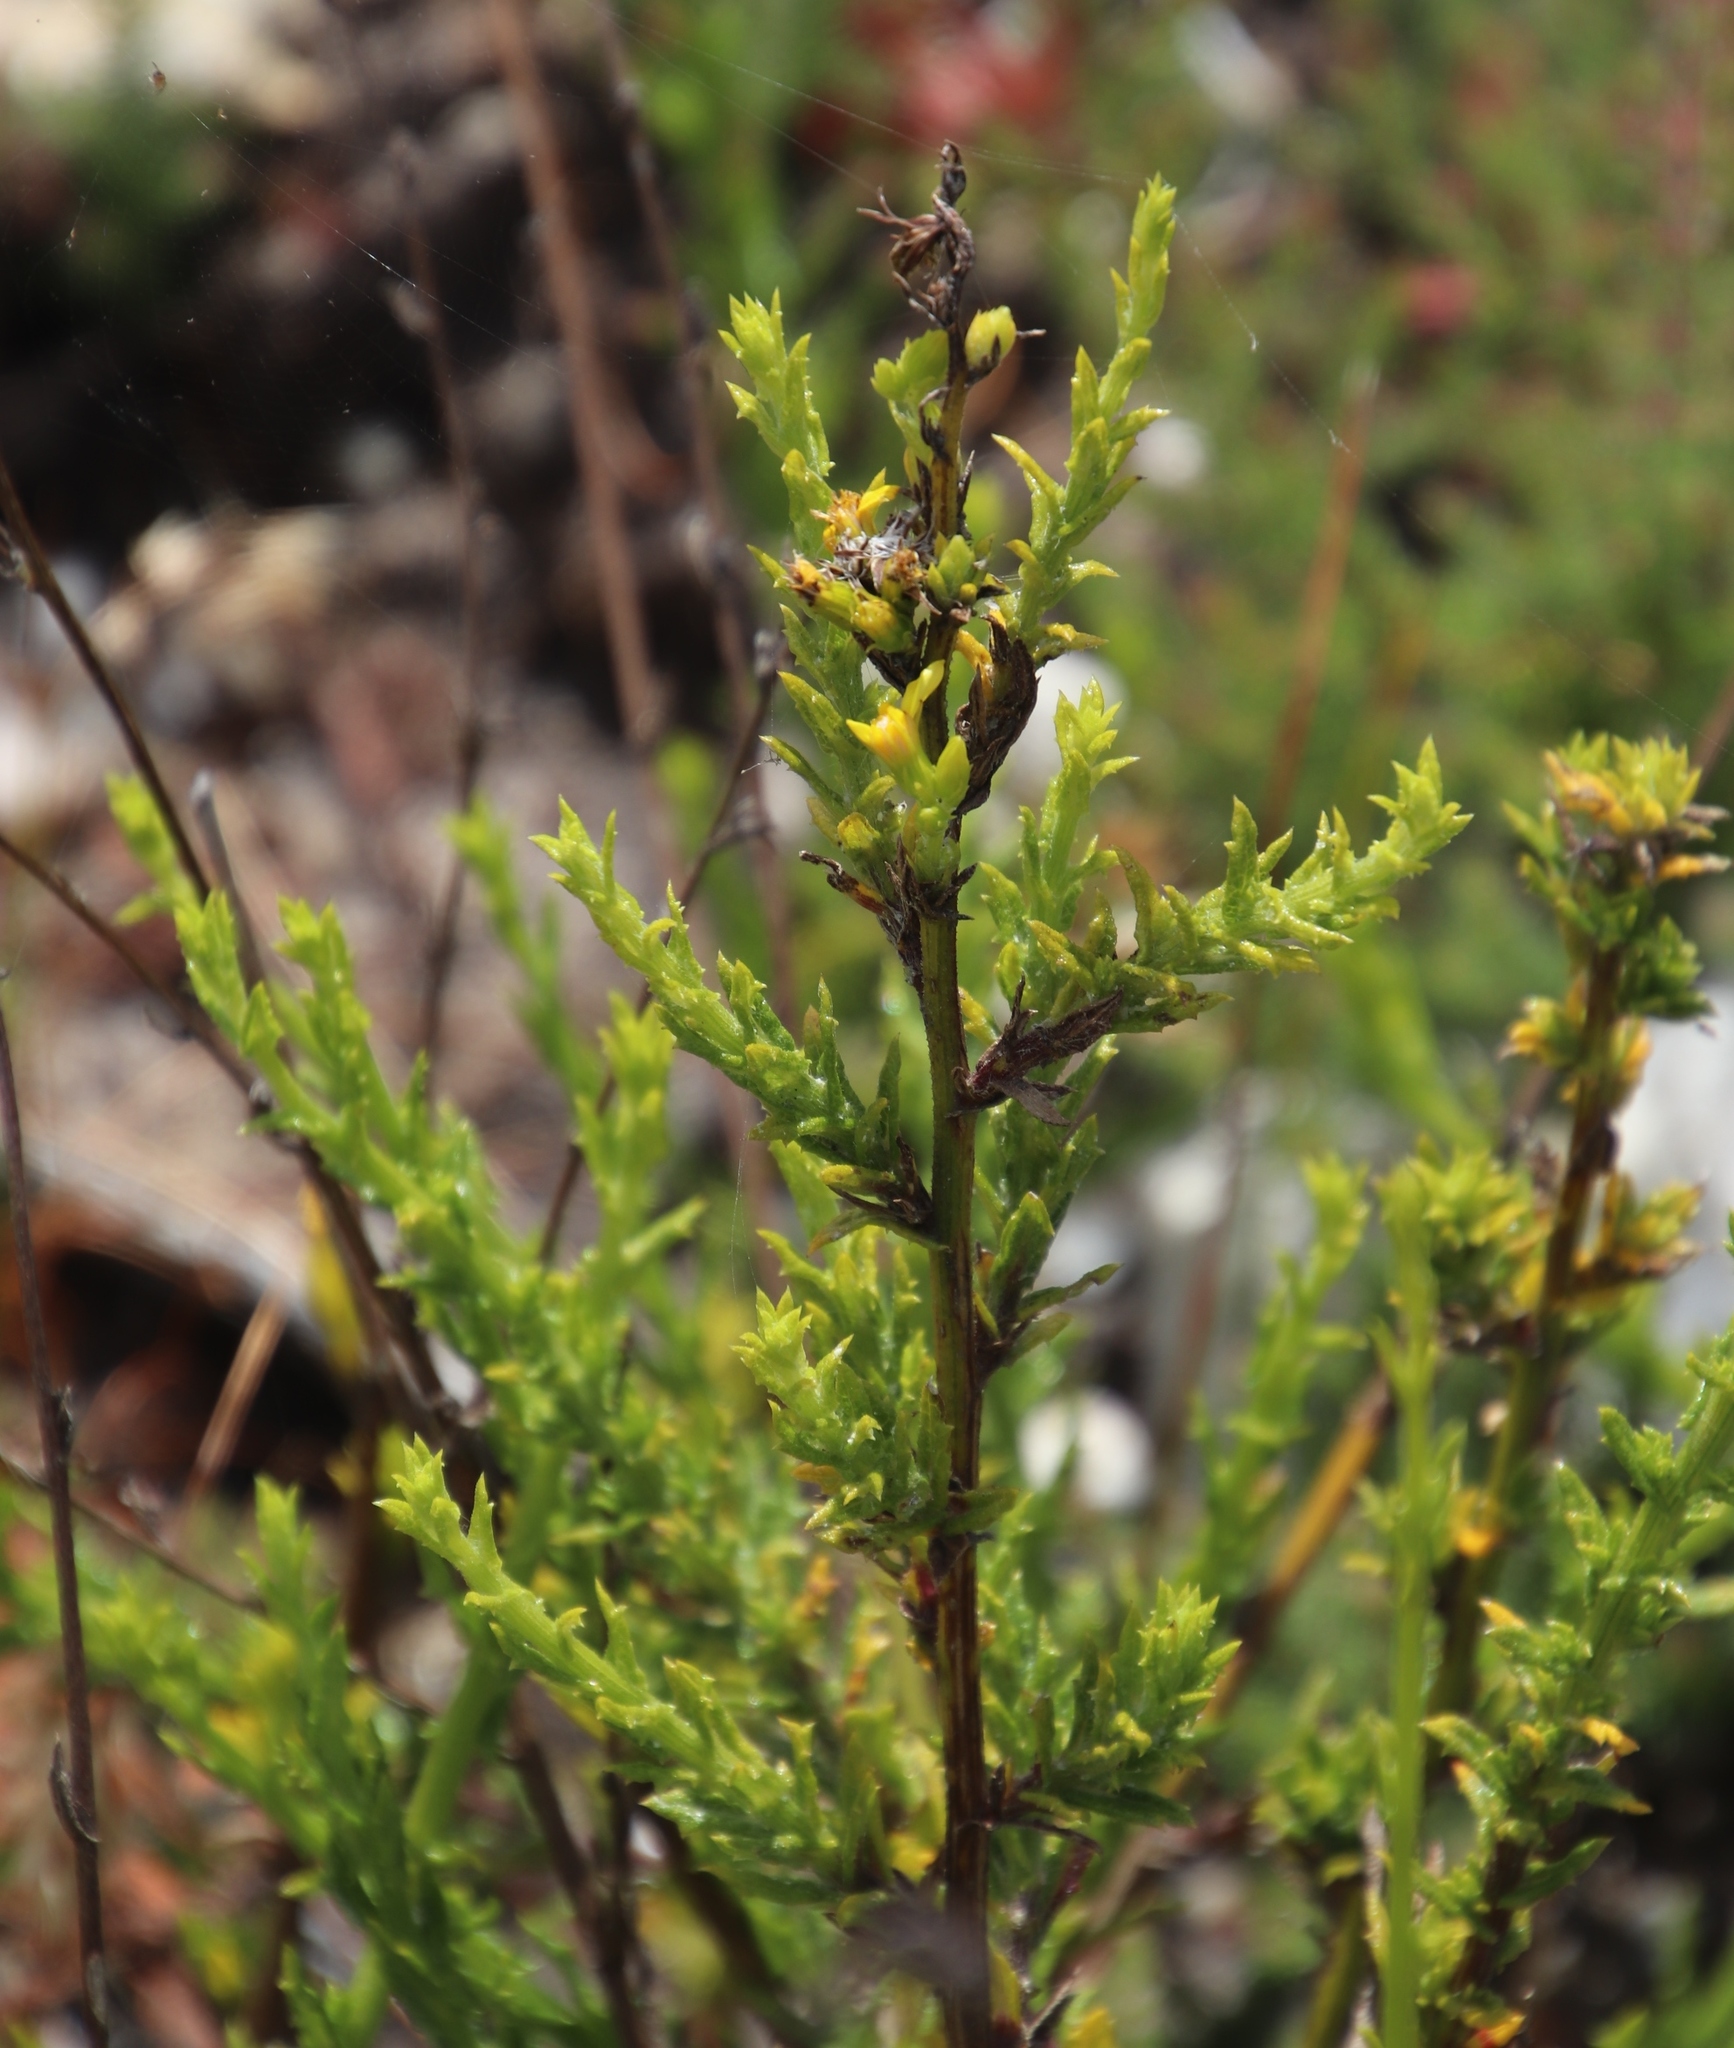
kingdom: Plantae
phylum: Tracheophyta
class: Magnoliopsida
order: Asterales
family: Asteraceae
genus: Senecio
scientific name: Senecio pubigerus
